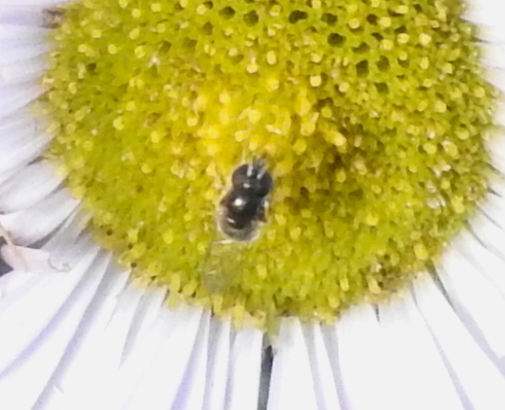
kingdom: Animalia
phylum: Arthropoda
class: Insecta
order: Diptera
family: Syrphidae
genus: Paragus
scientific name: Paragus haemorrhous
